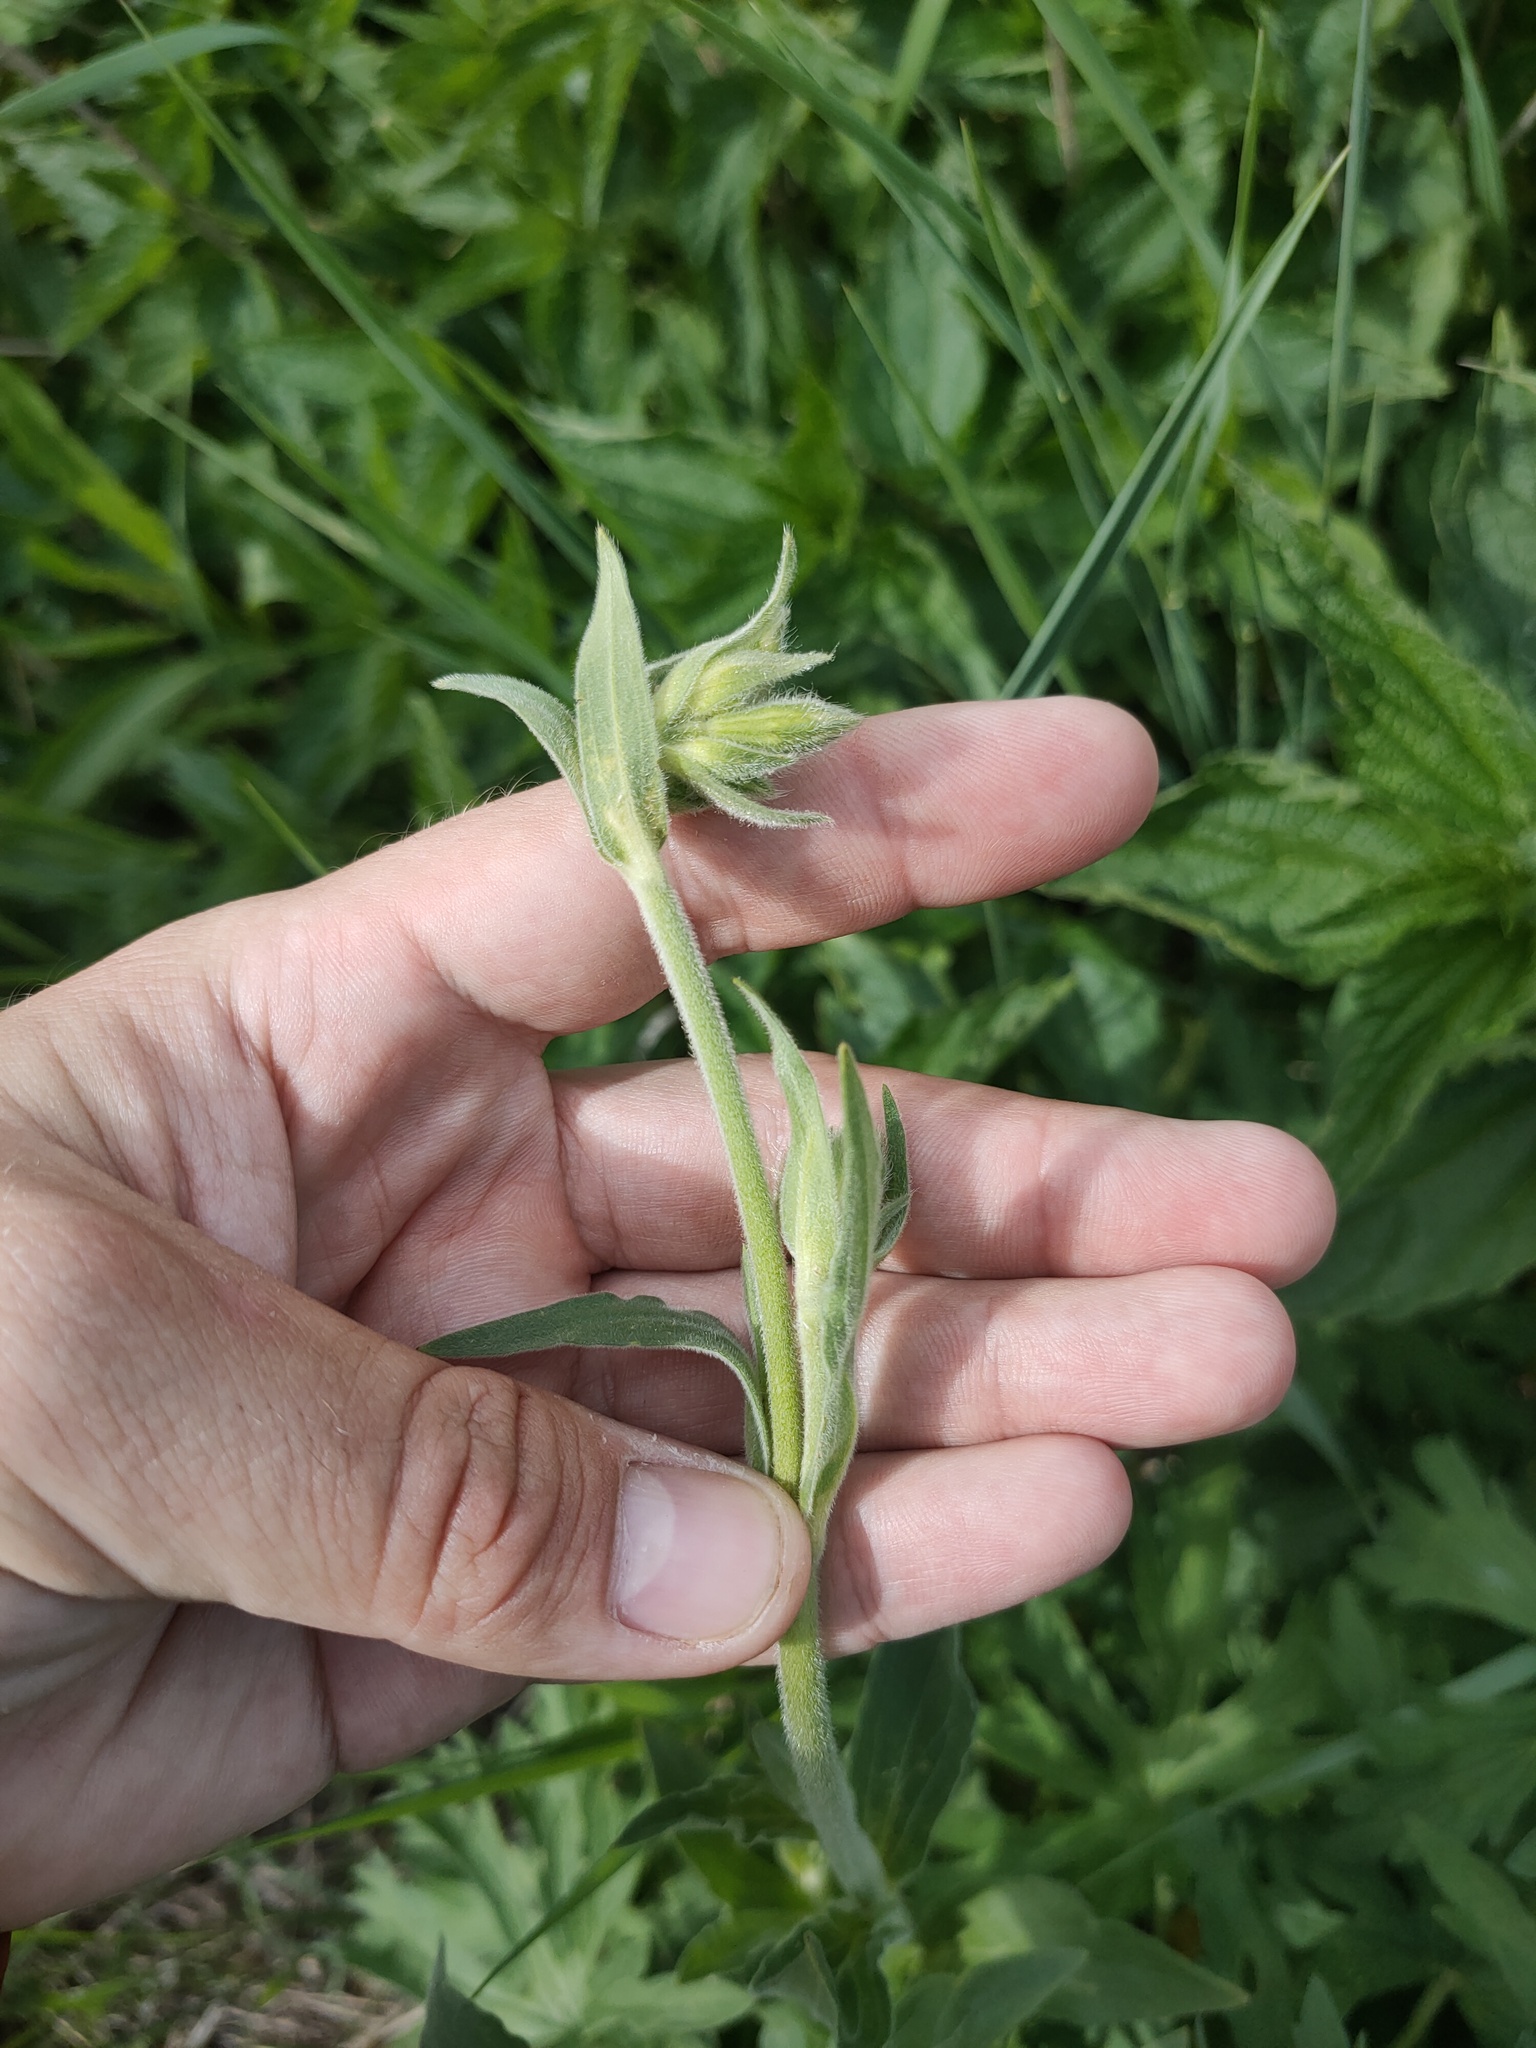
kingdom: Plantae
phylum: Tracheophyta
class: Magnoliopsida
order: Caryophyllales
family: Caryophyllaceae
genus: Silene
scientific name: Silene latifolia
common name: White campion
